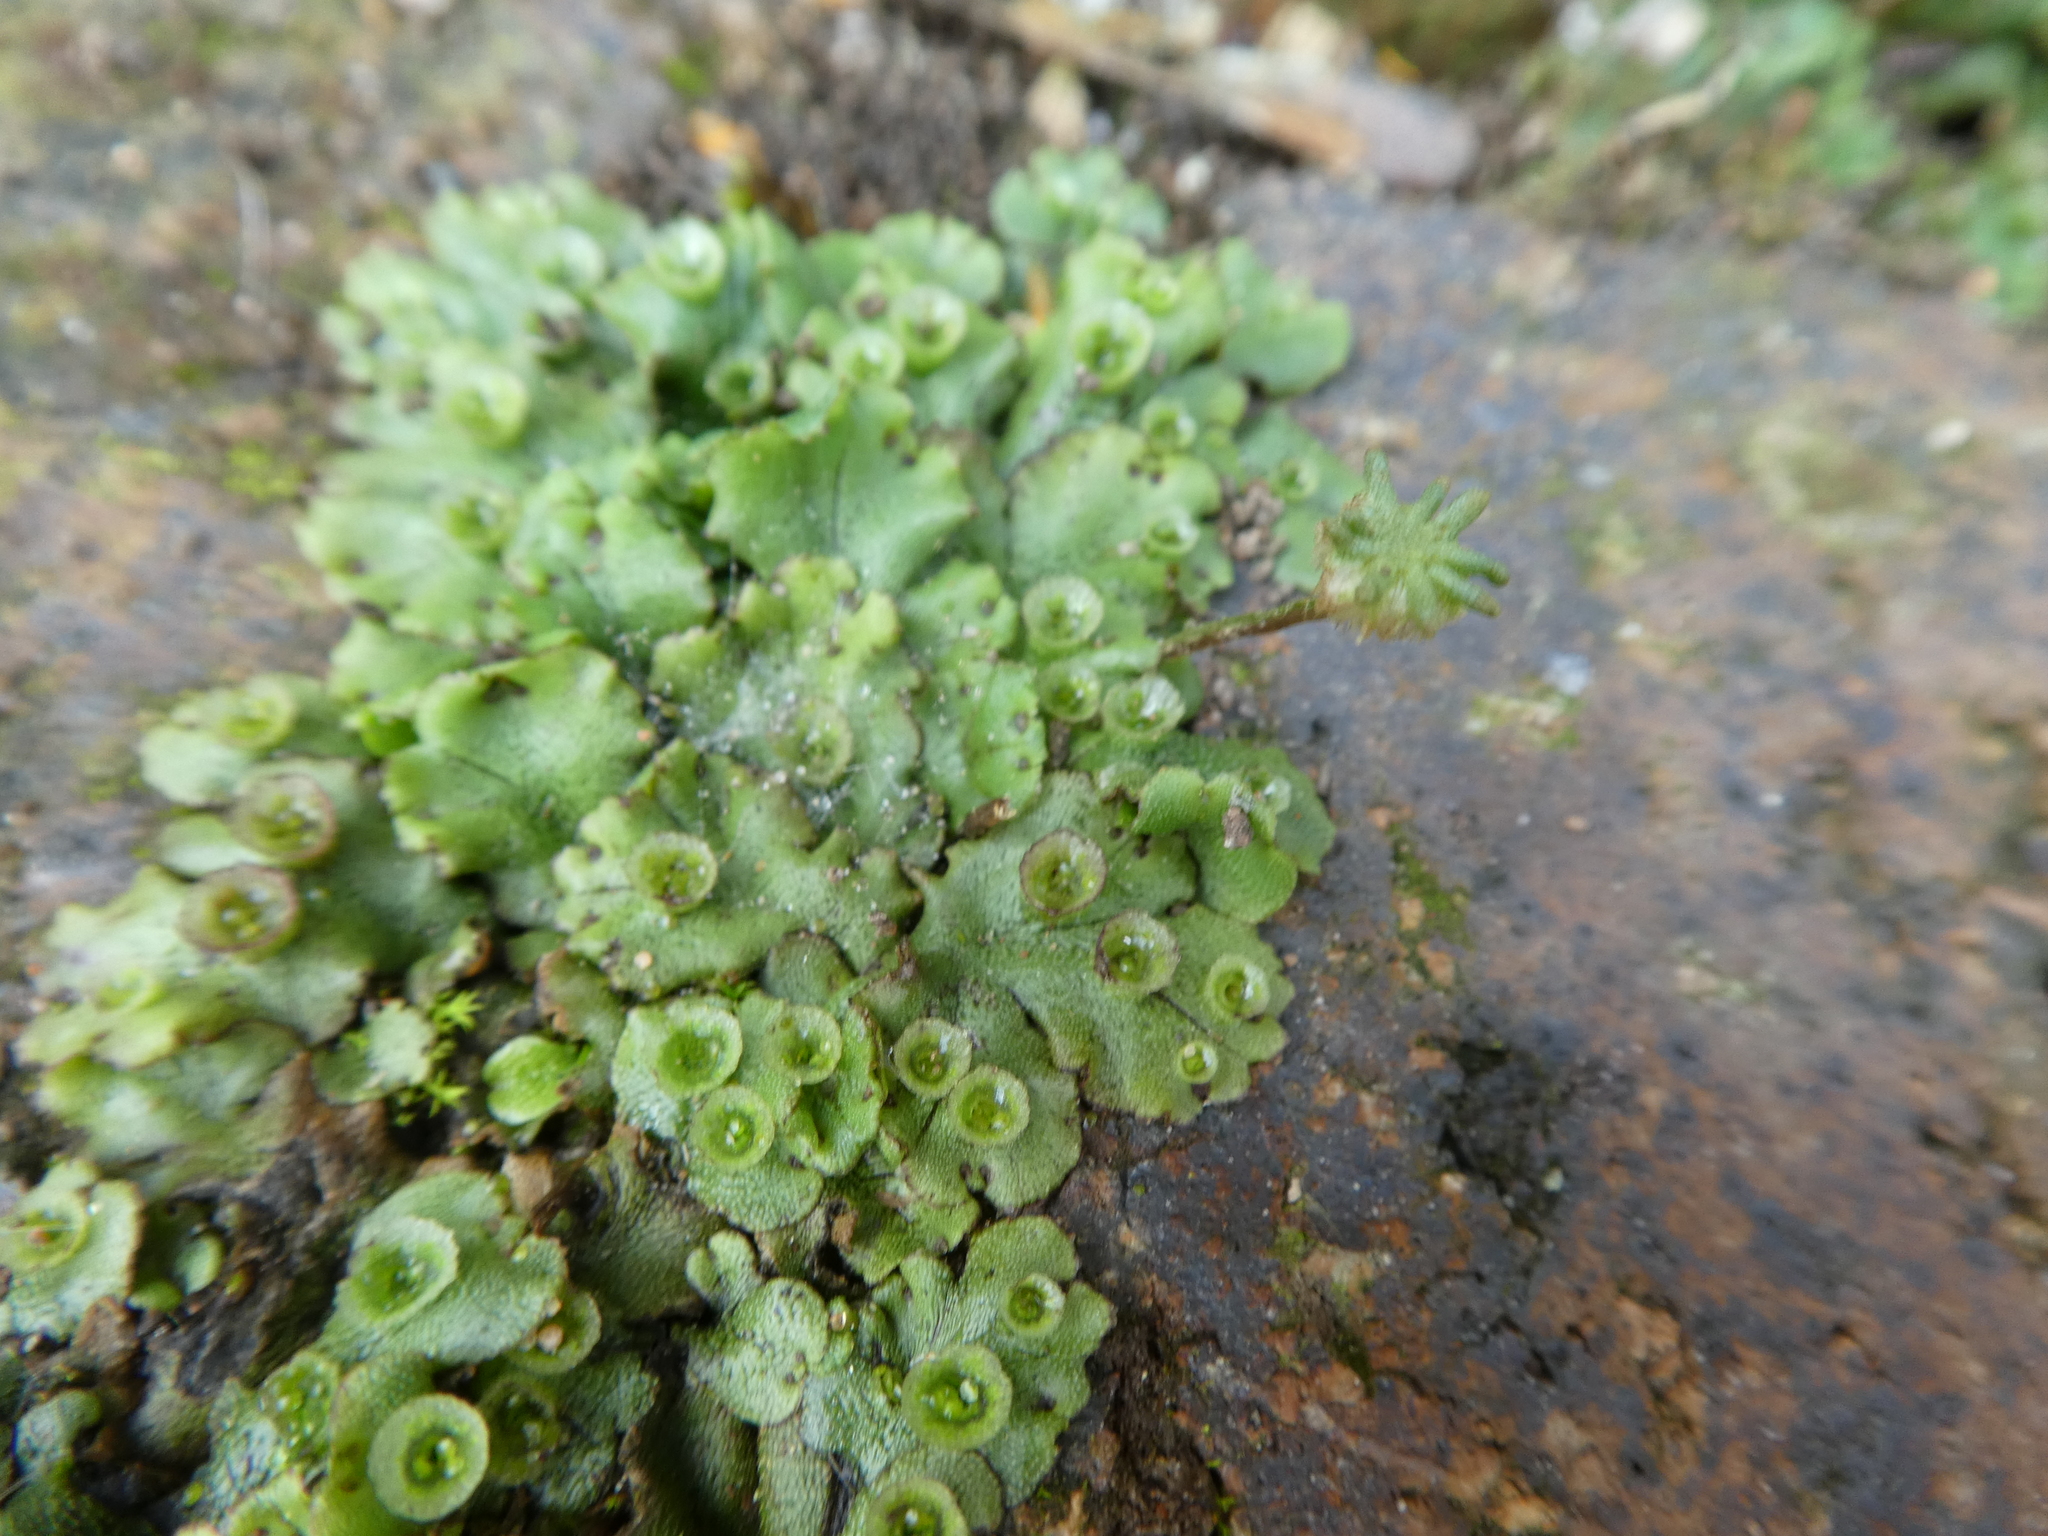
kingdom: Plantae
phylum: Marchantiophyta
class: Marchantiopsida
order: Marchantiales
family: Marchantiaceae
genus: Marchantia
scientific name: Marchantia polymorpha
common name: Common liverwort
